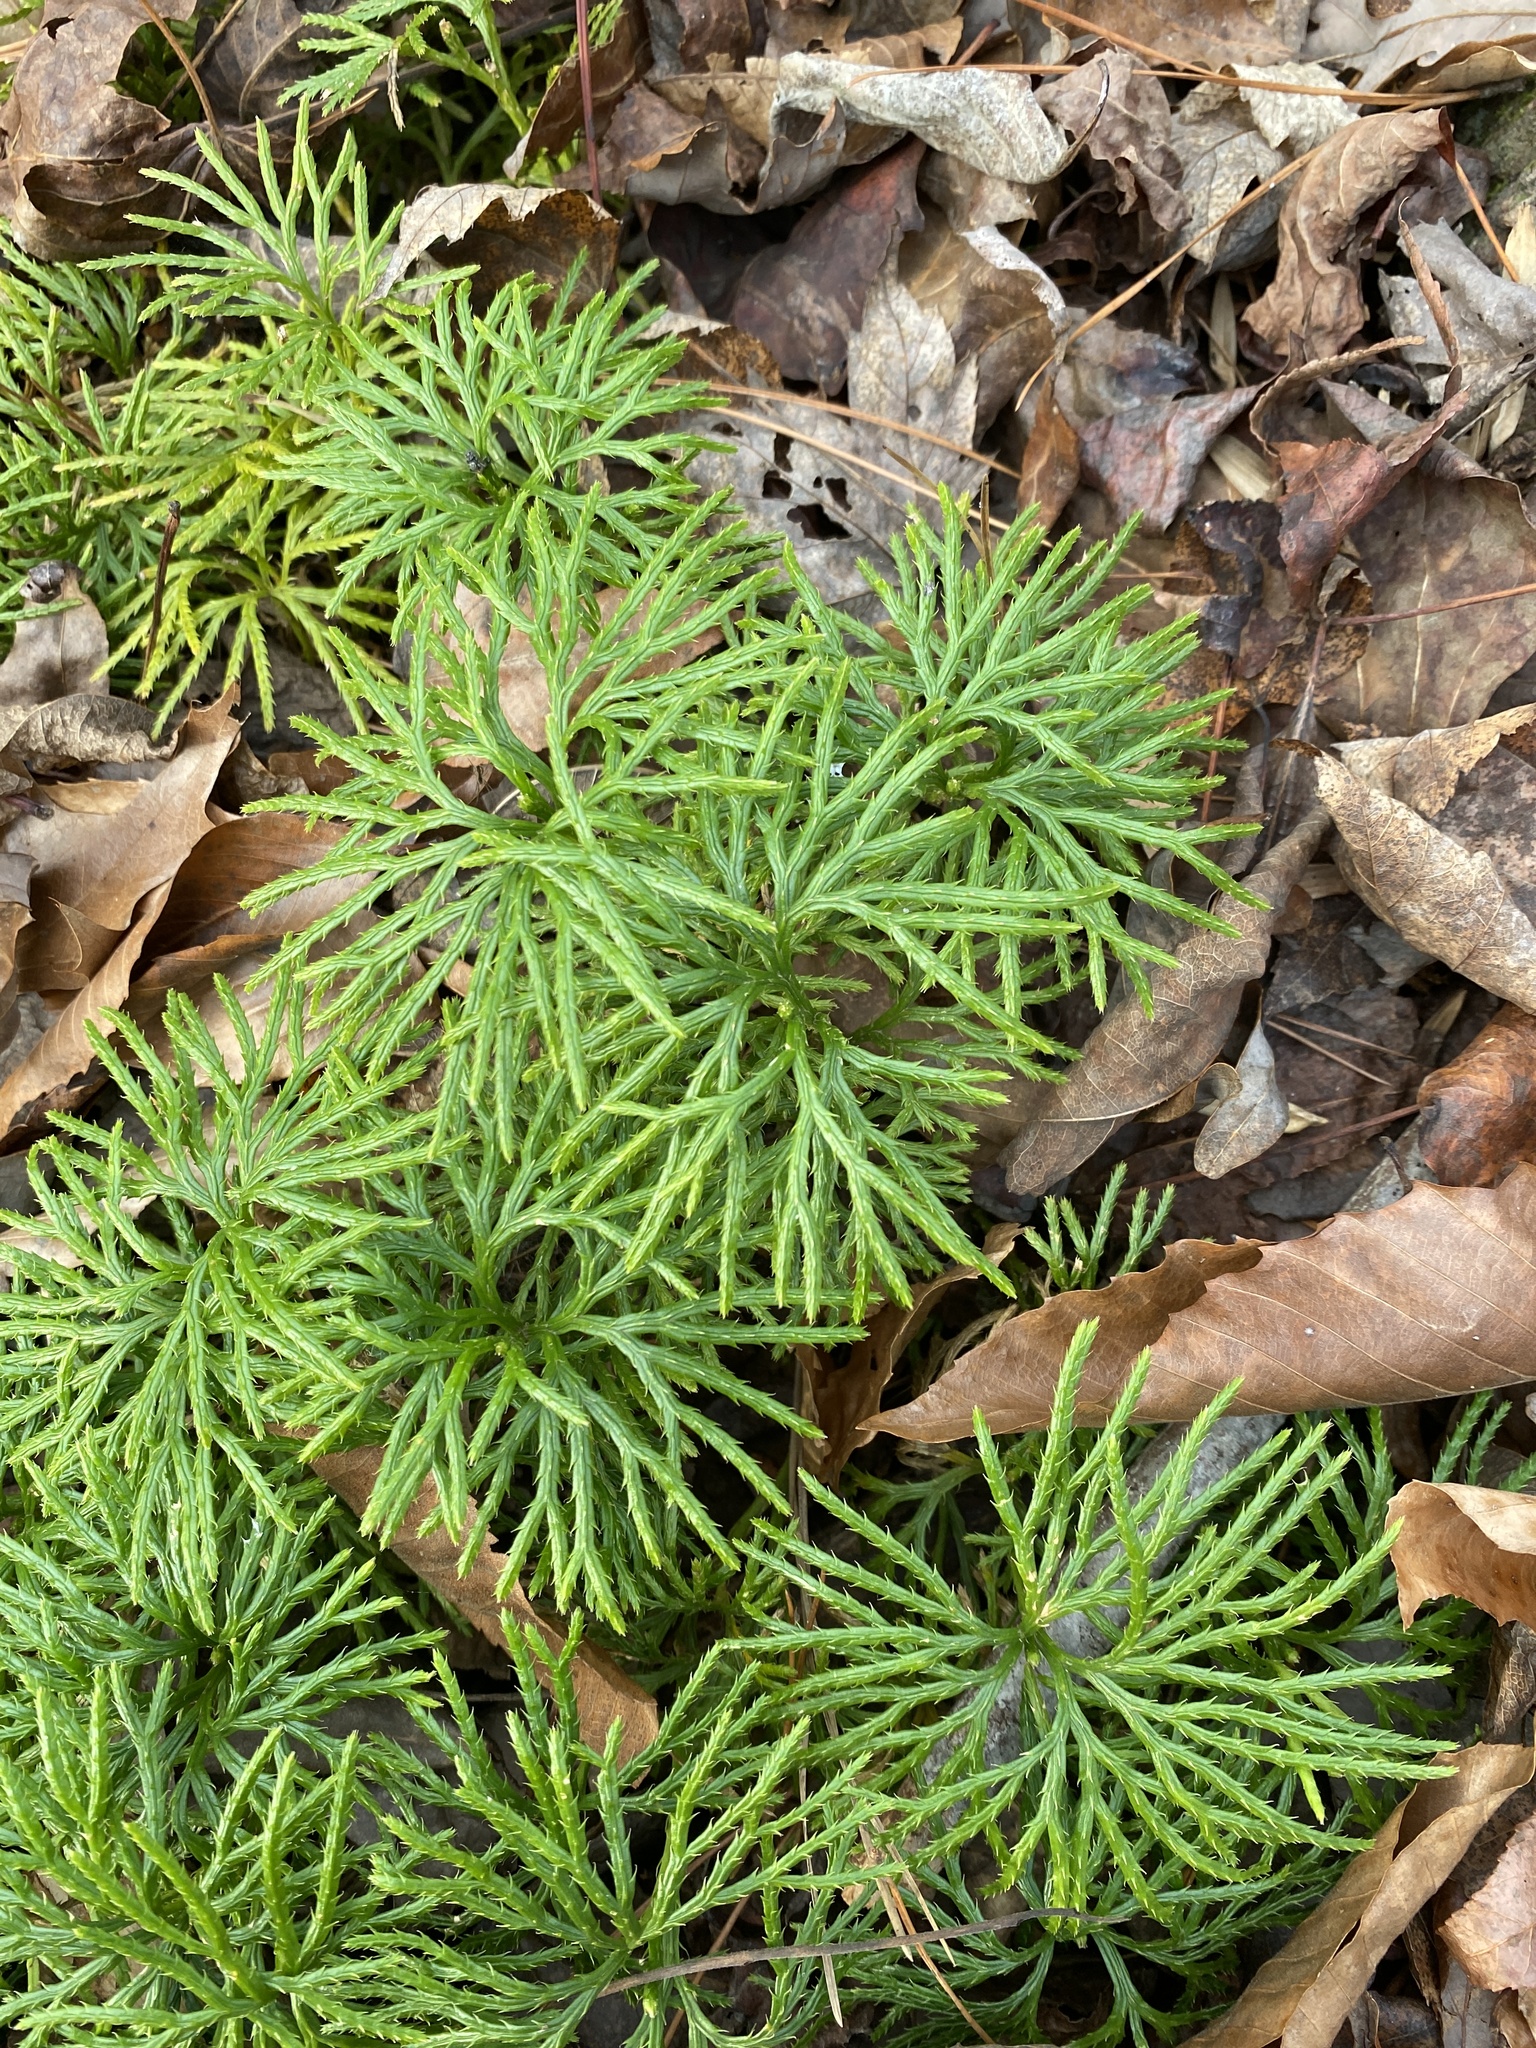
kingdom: Plantae
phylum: Tracheophyta
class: Lycopodiopsida
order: Lycopodiales
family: Lycopodiaceae
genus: Diphasiastrum
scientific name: Diphasiastrum digitatum
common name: Southern running-pine
